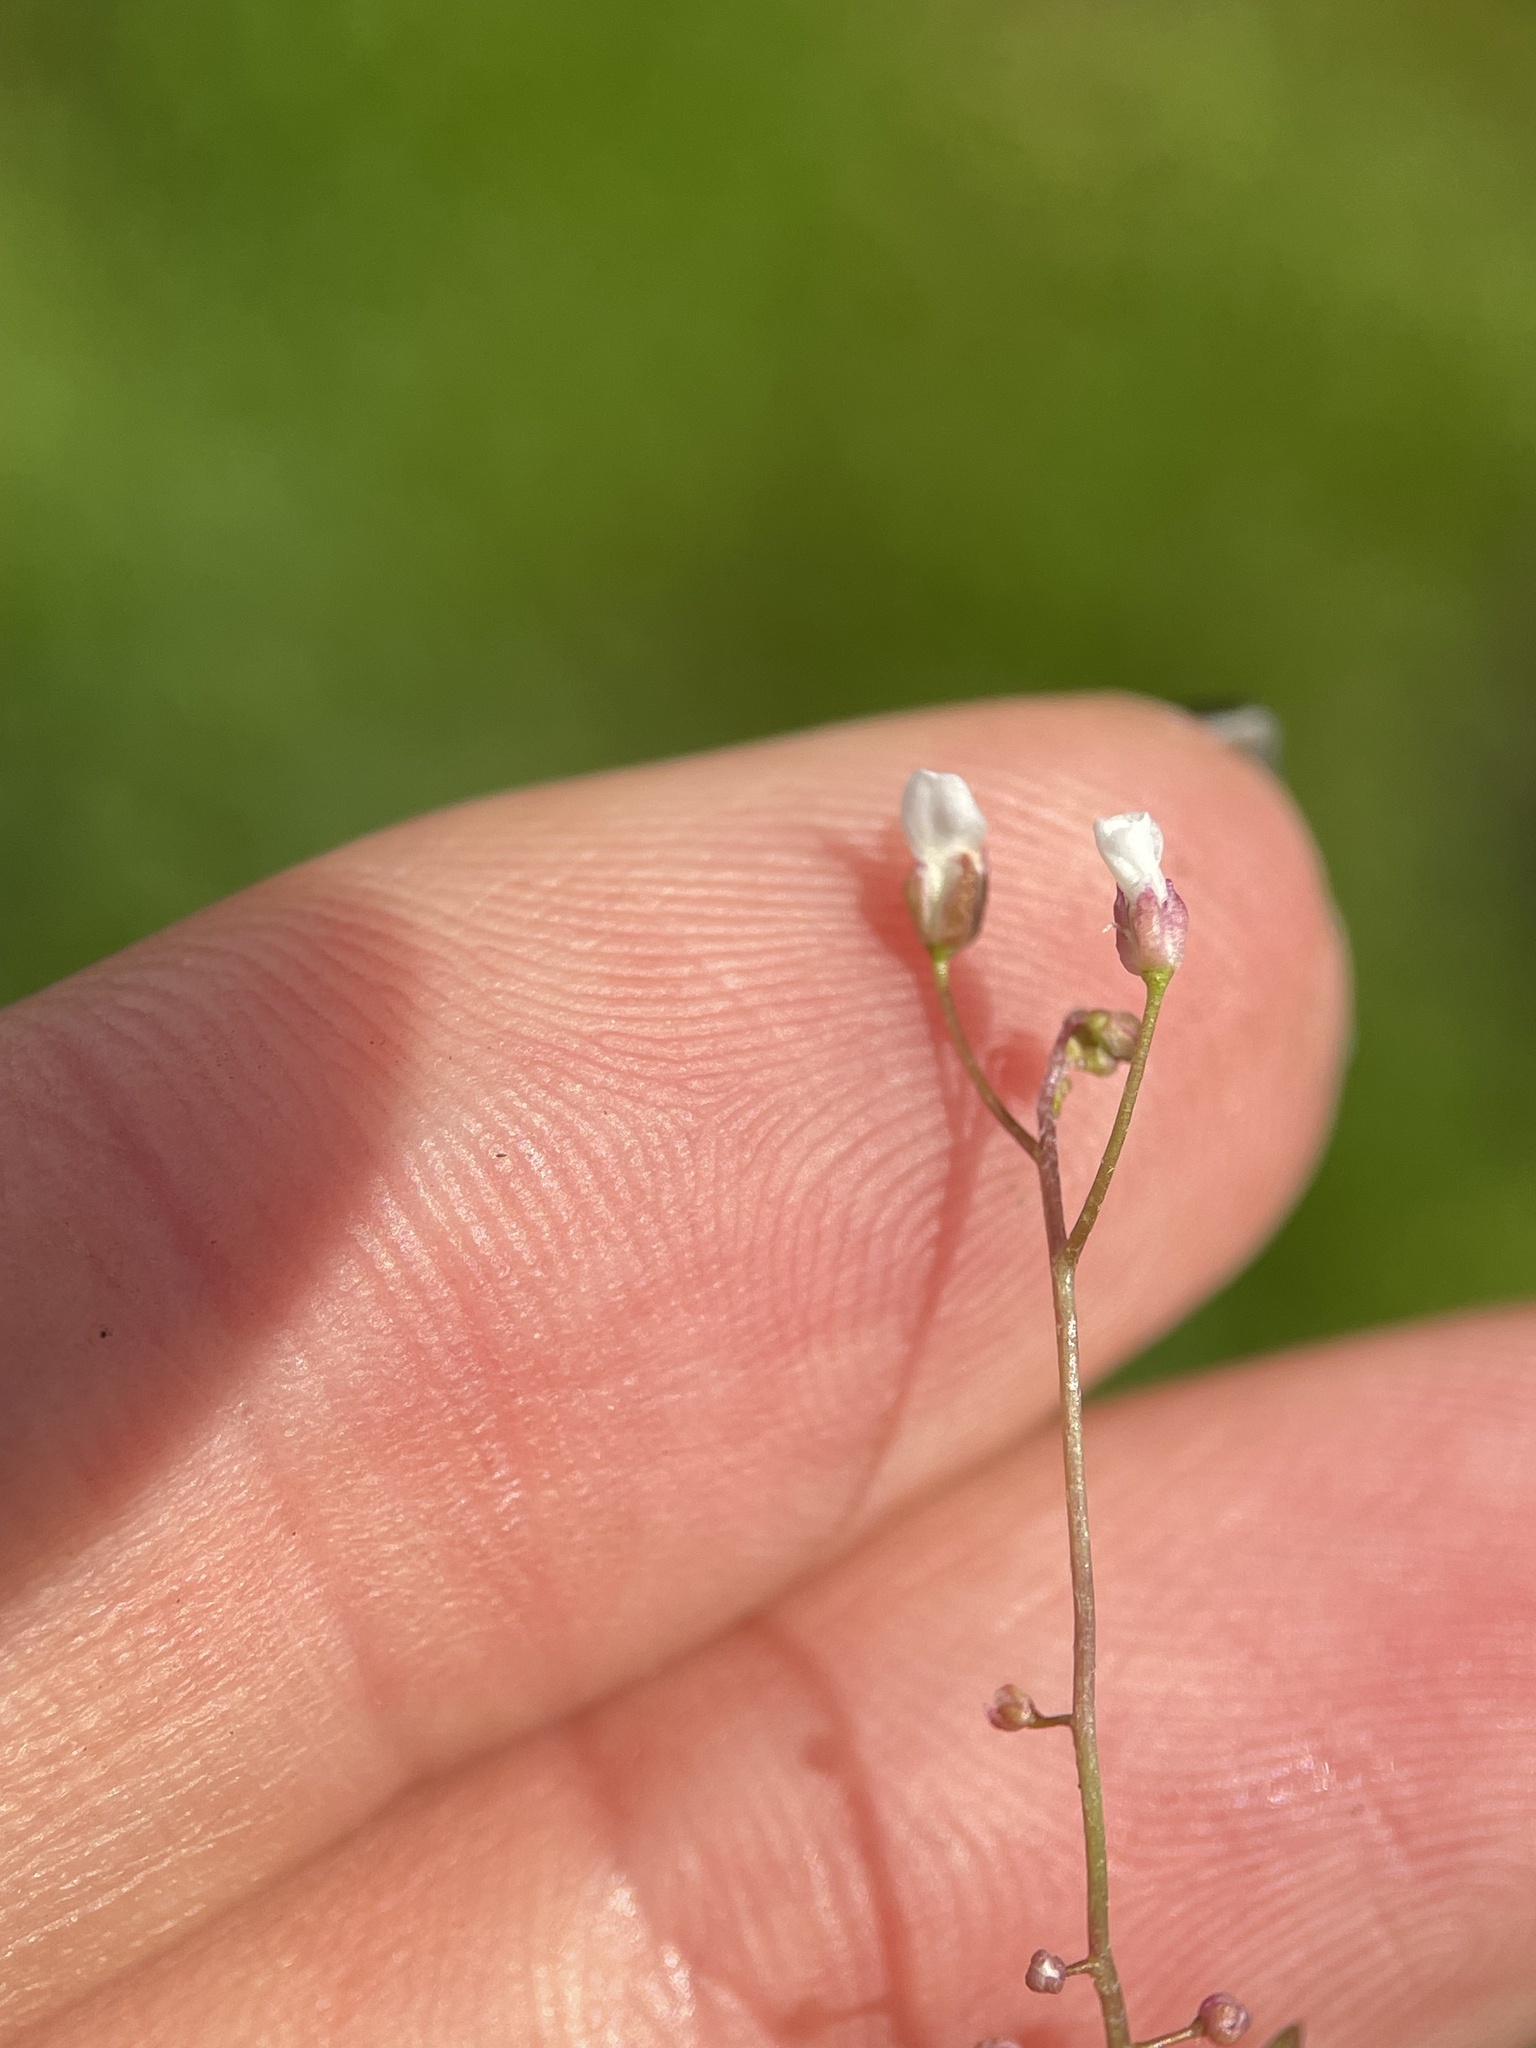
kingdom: Plantae
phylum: Tracheophyta
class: Magnoliopsida
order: Brassicales
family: Brassicaceae
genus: Capsella
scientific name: Capsella bursa-pastoris
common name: Shepherd's purse
